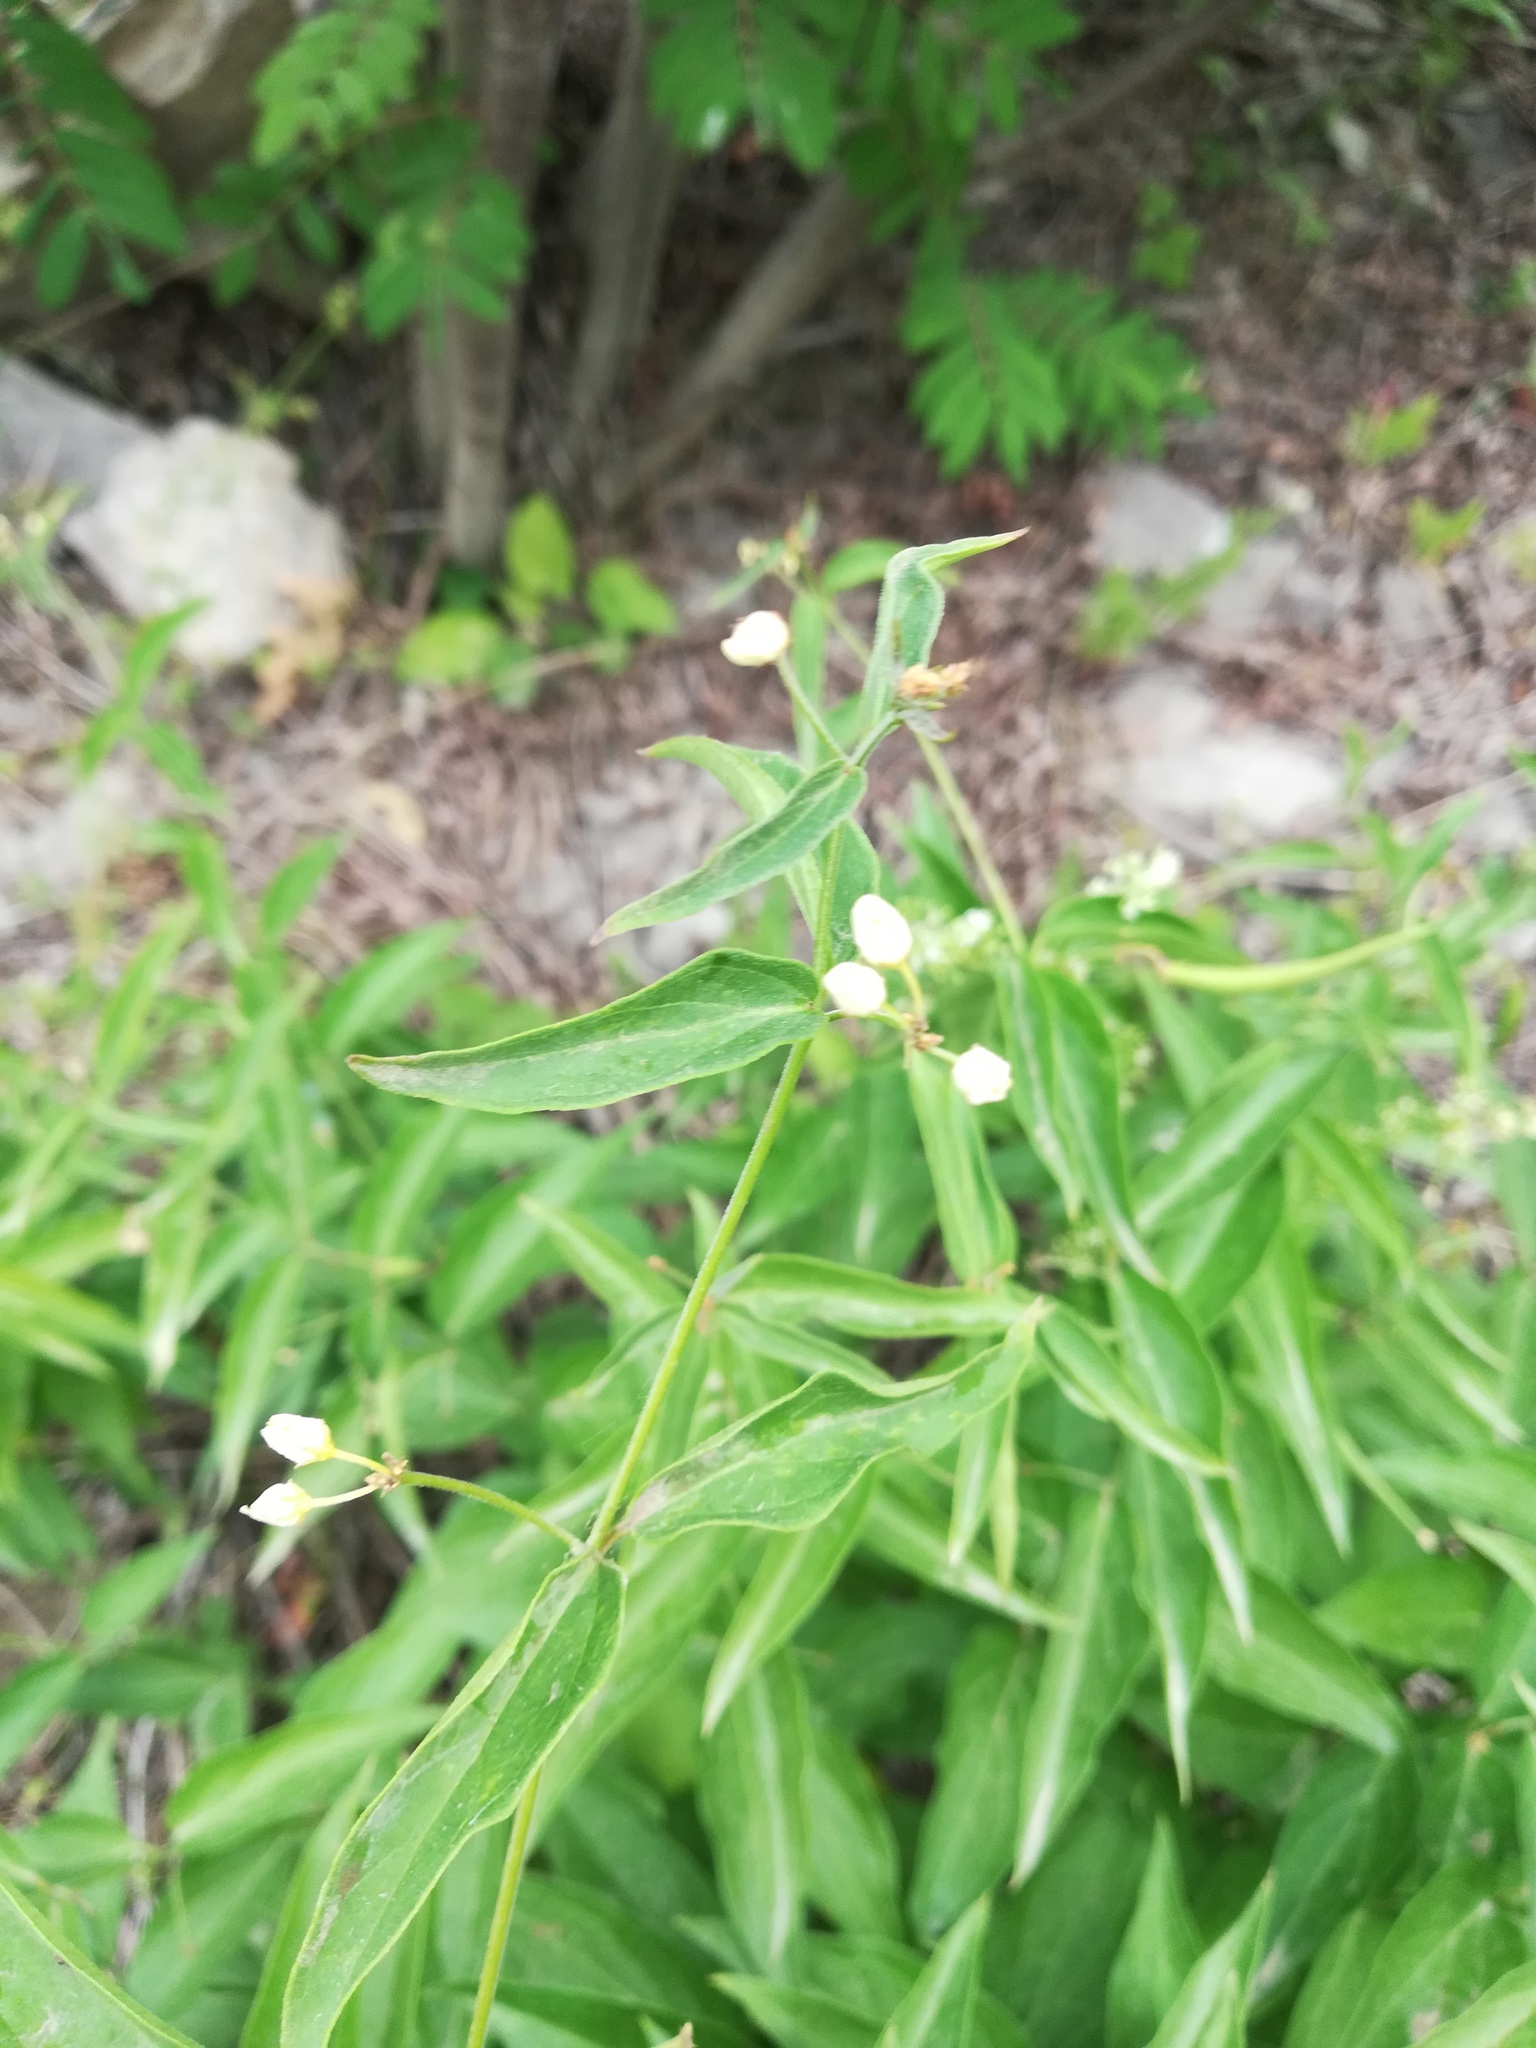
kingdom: Plantae
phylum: Tracheophyta
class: Magnoliopsida
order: Gentianales
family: Apocynaceae
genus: Vincetoxicum
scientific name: Vincetoxicum hirundinaria
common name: White swallowwort
